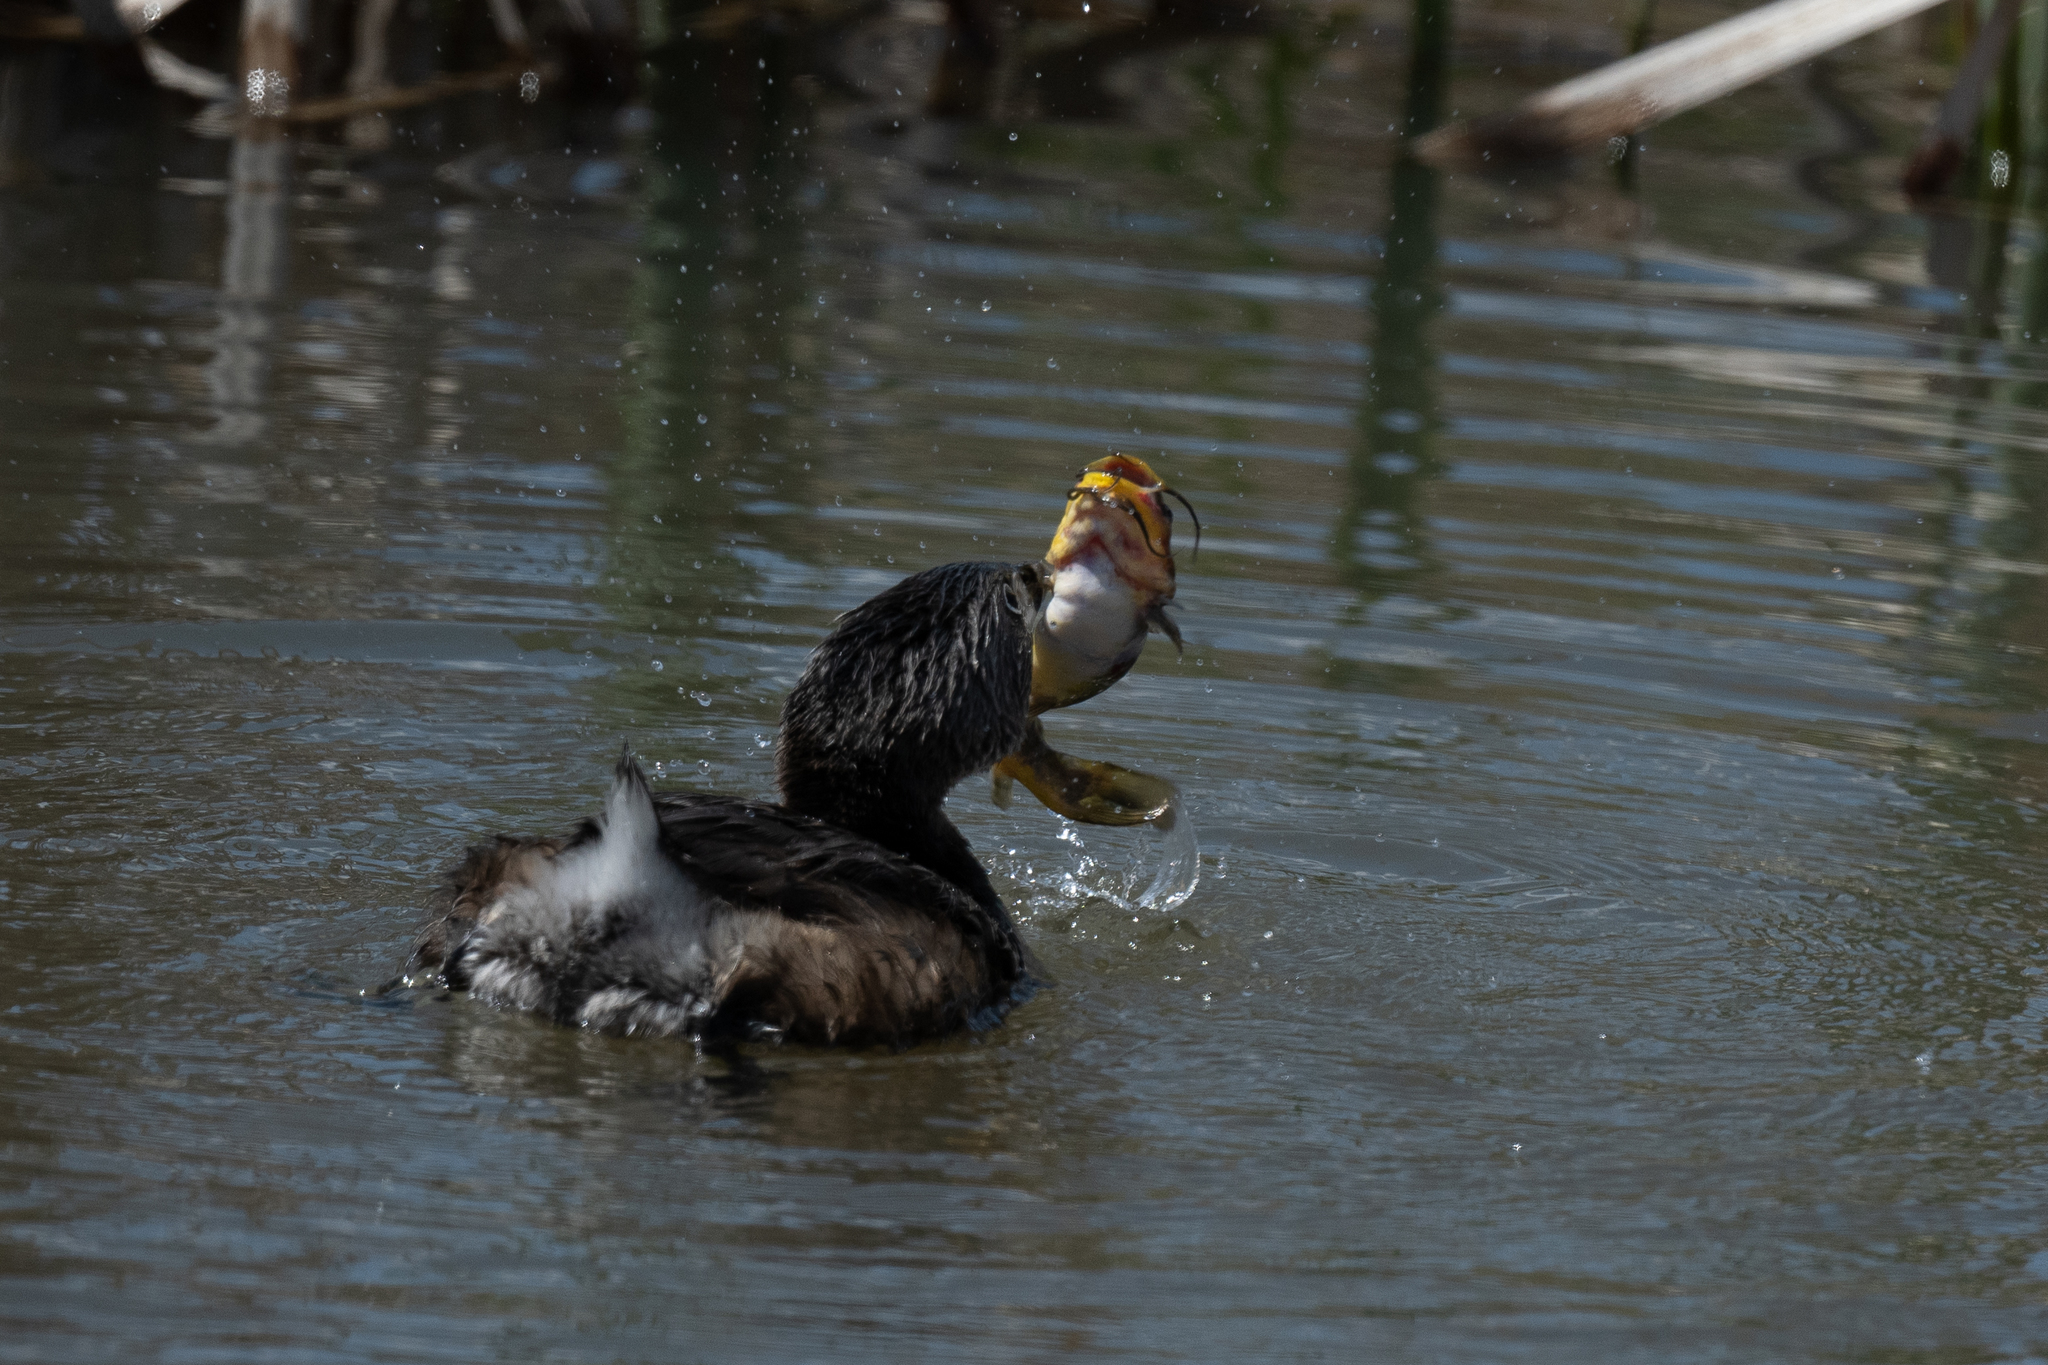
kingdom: Animalia
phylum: Chordata
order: Siluriformes
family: Ictaluridae
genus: Ameiurus
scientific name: Ameiurus melas
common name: Black bullhead
